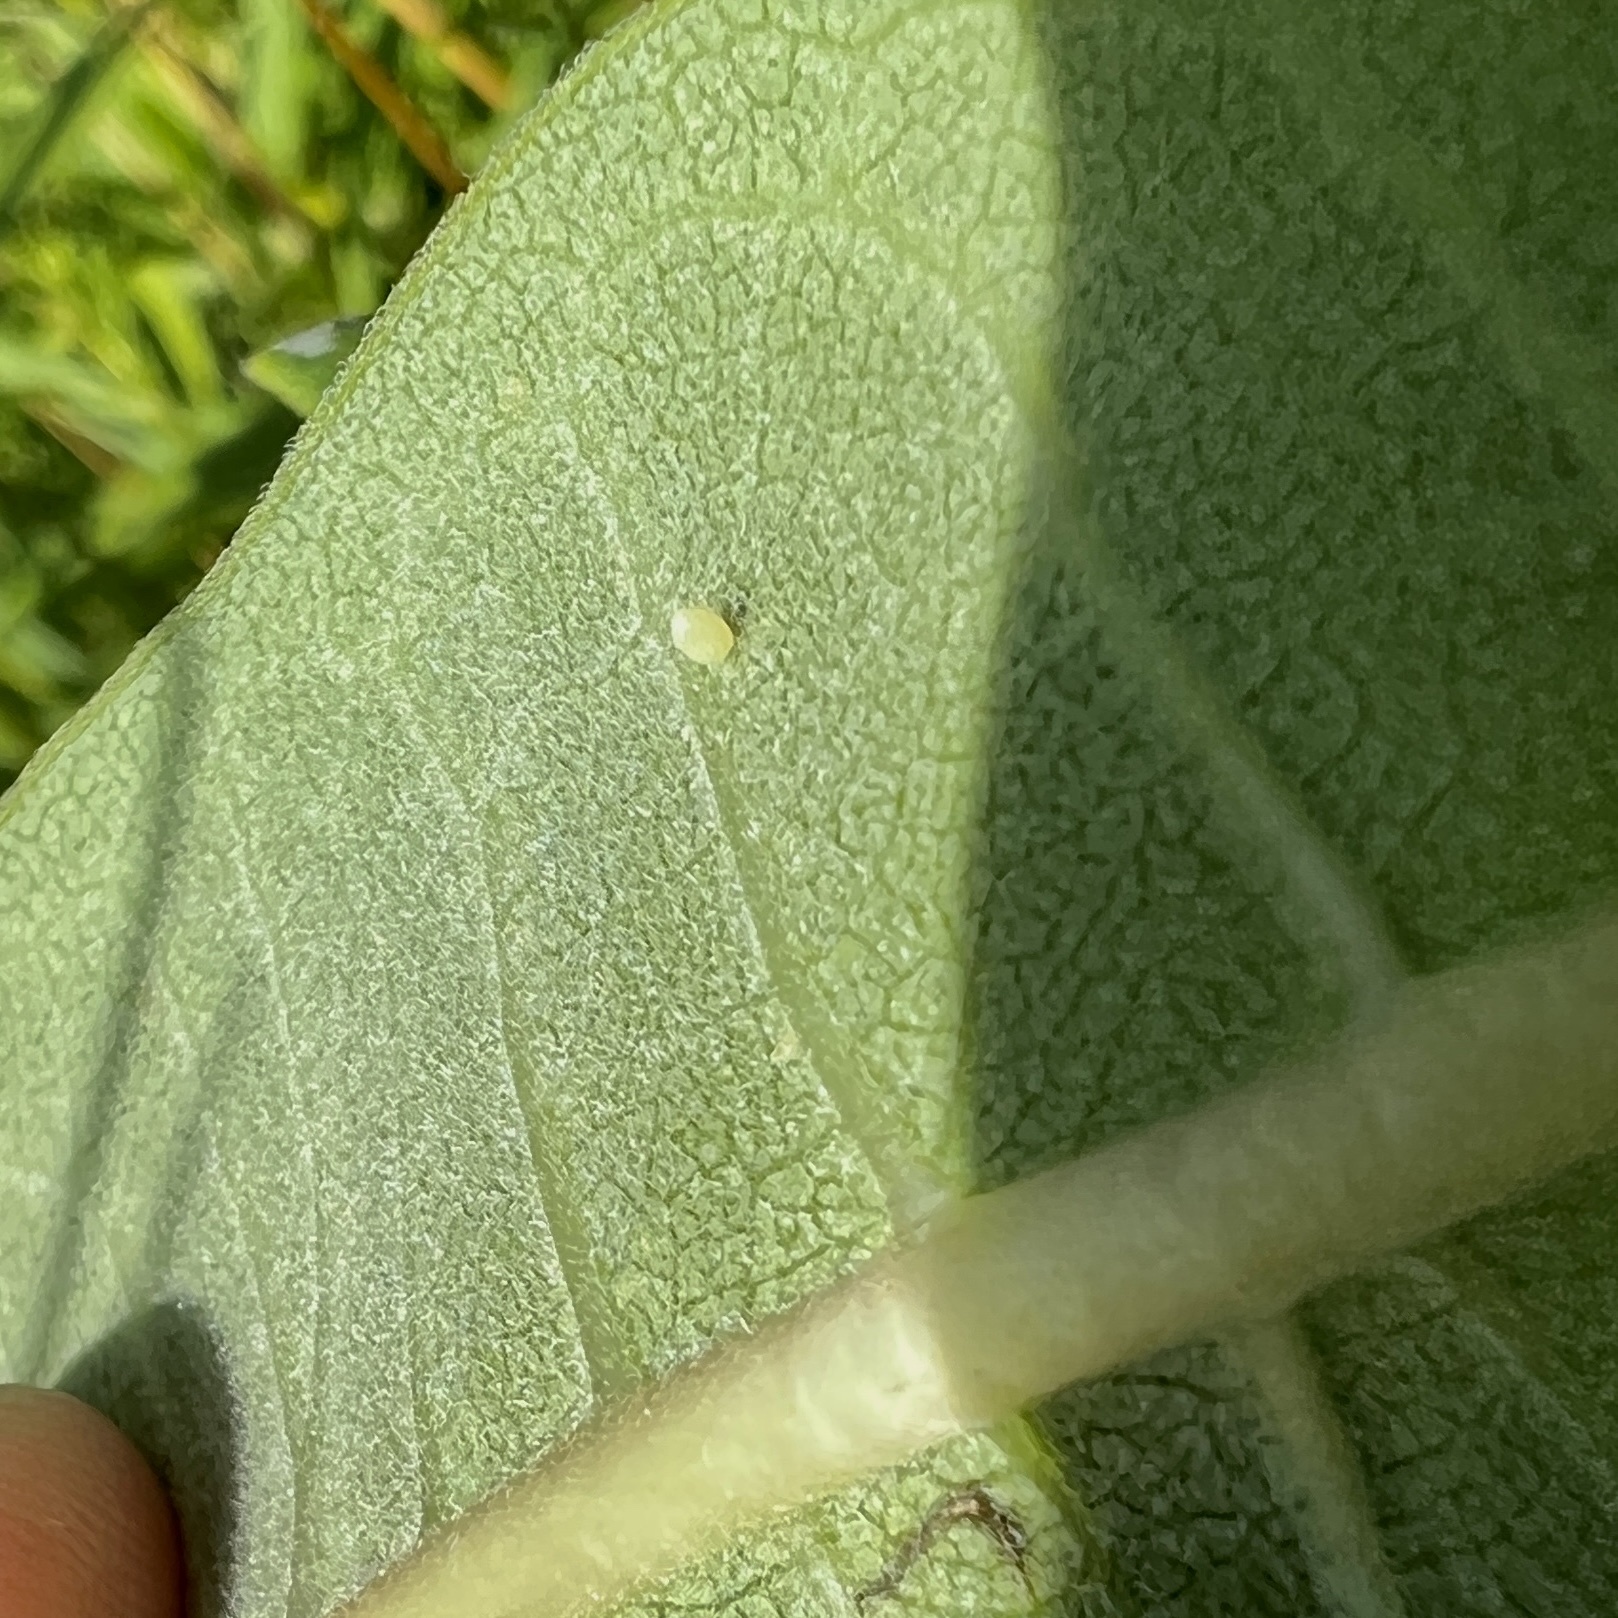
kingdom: Animalia
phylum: Arthropoda
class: Insecta
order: Lepidoptera
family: Nymphalidae
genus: Danaus
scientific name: Danaus plexippus
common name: Monarch
